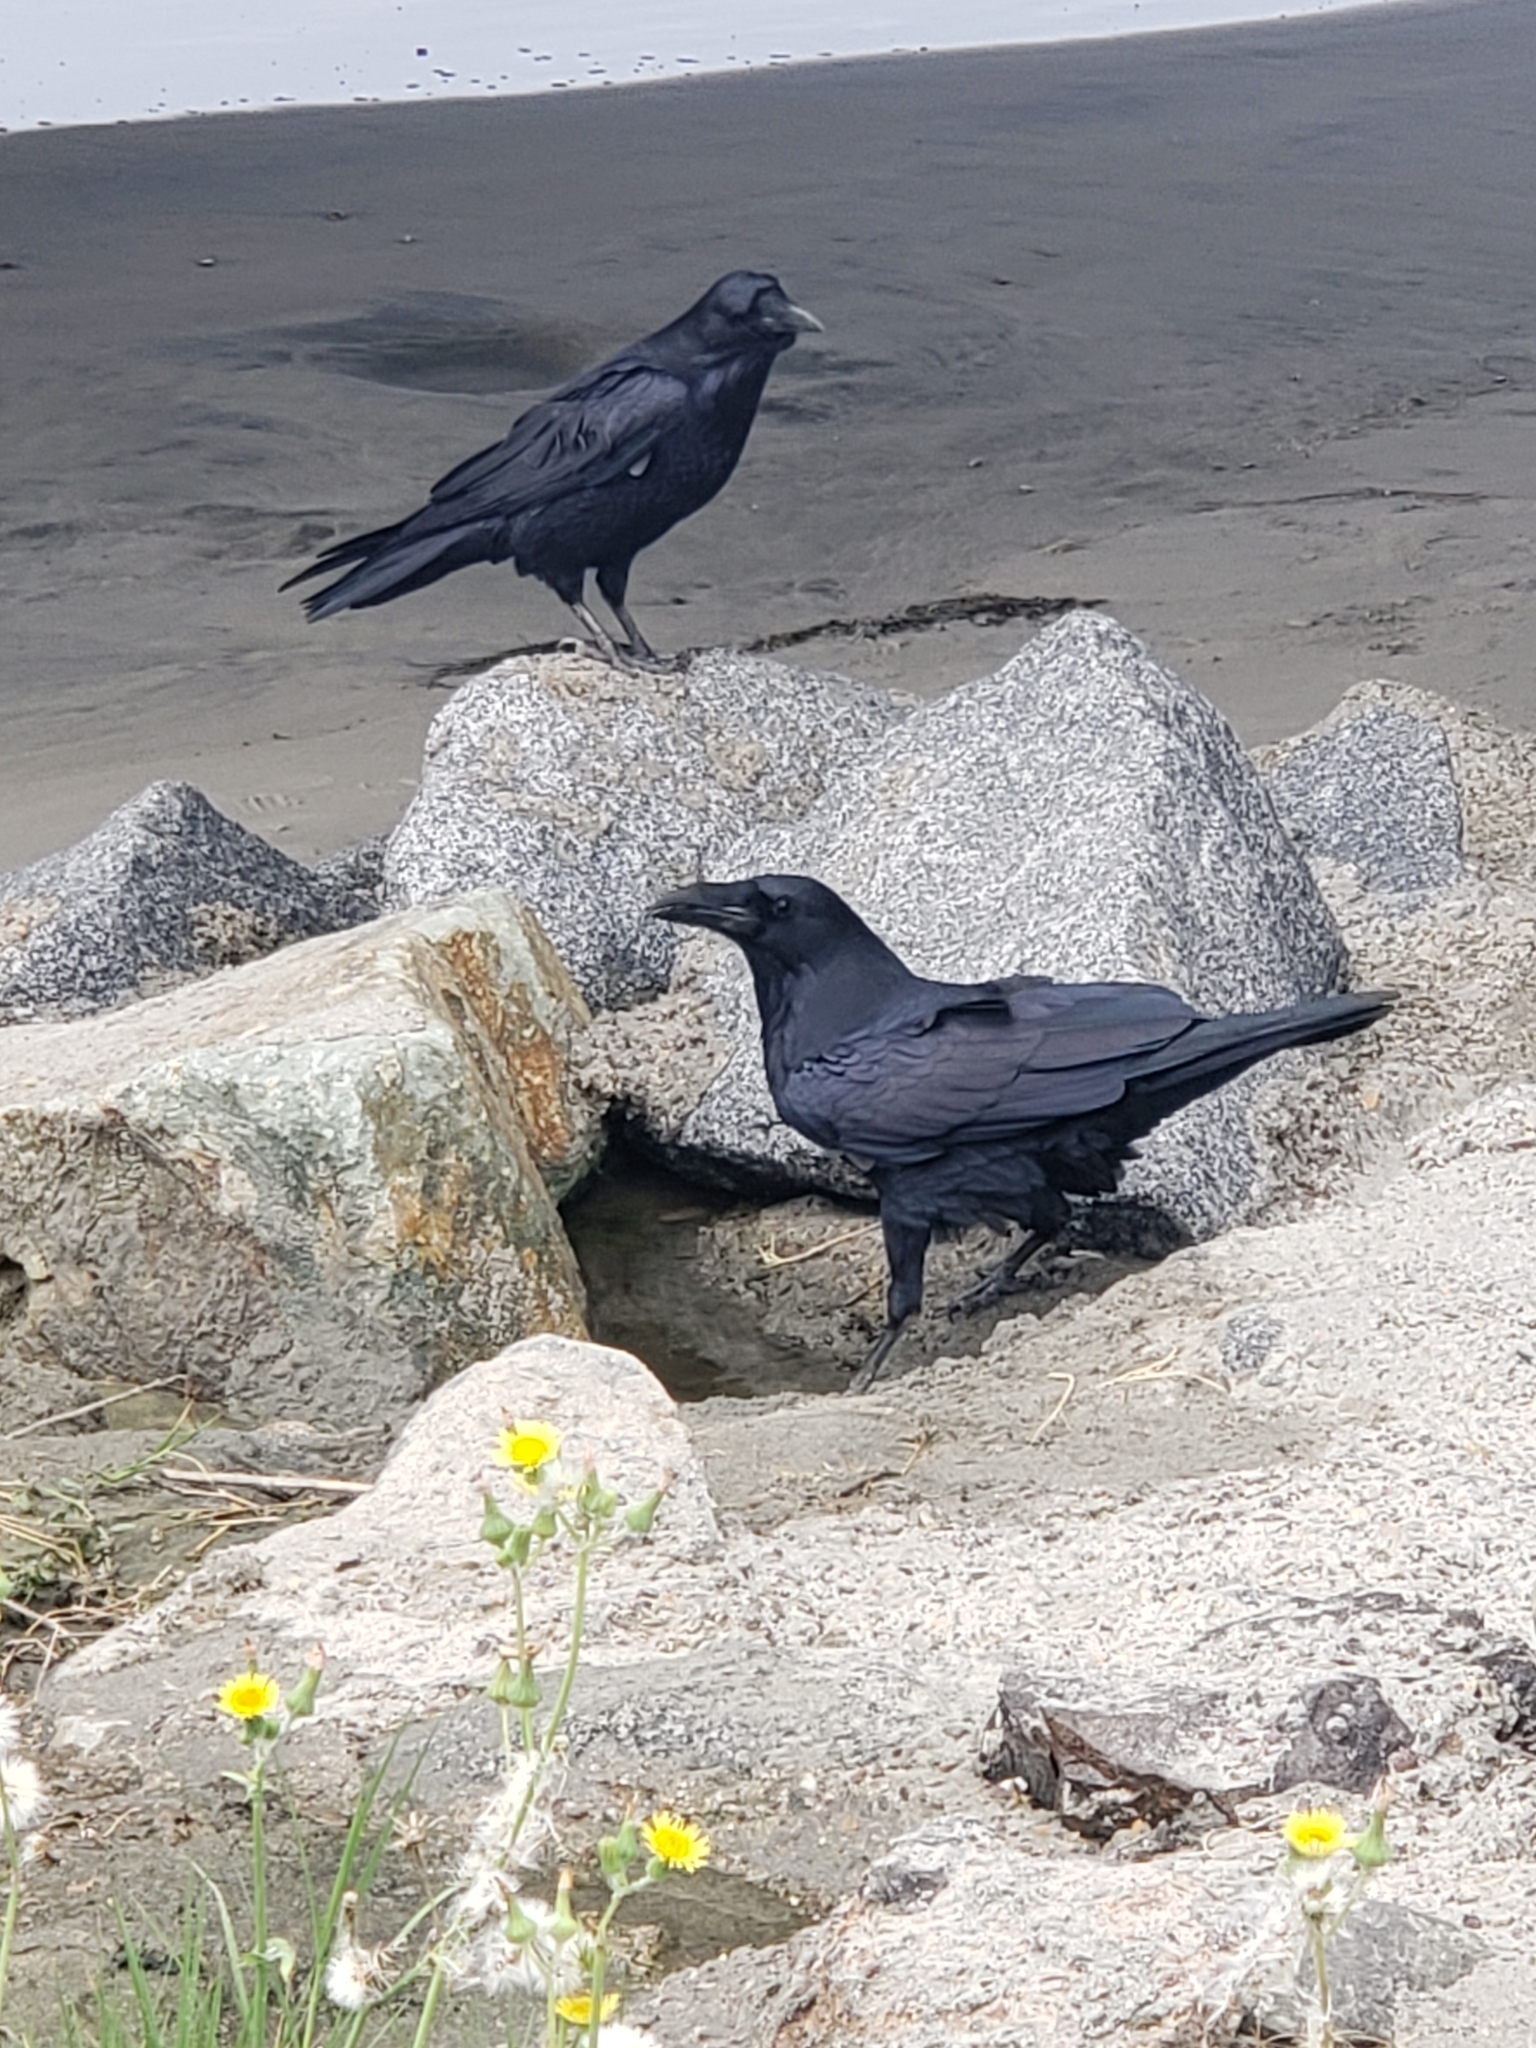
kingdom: Animalia
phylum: Chordata
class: Aves
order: Passeriformes
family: Corvidae
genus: Corvus
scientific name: Corvus corax
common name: Common raven
